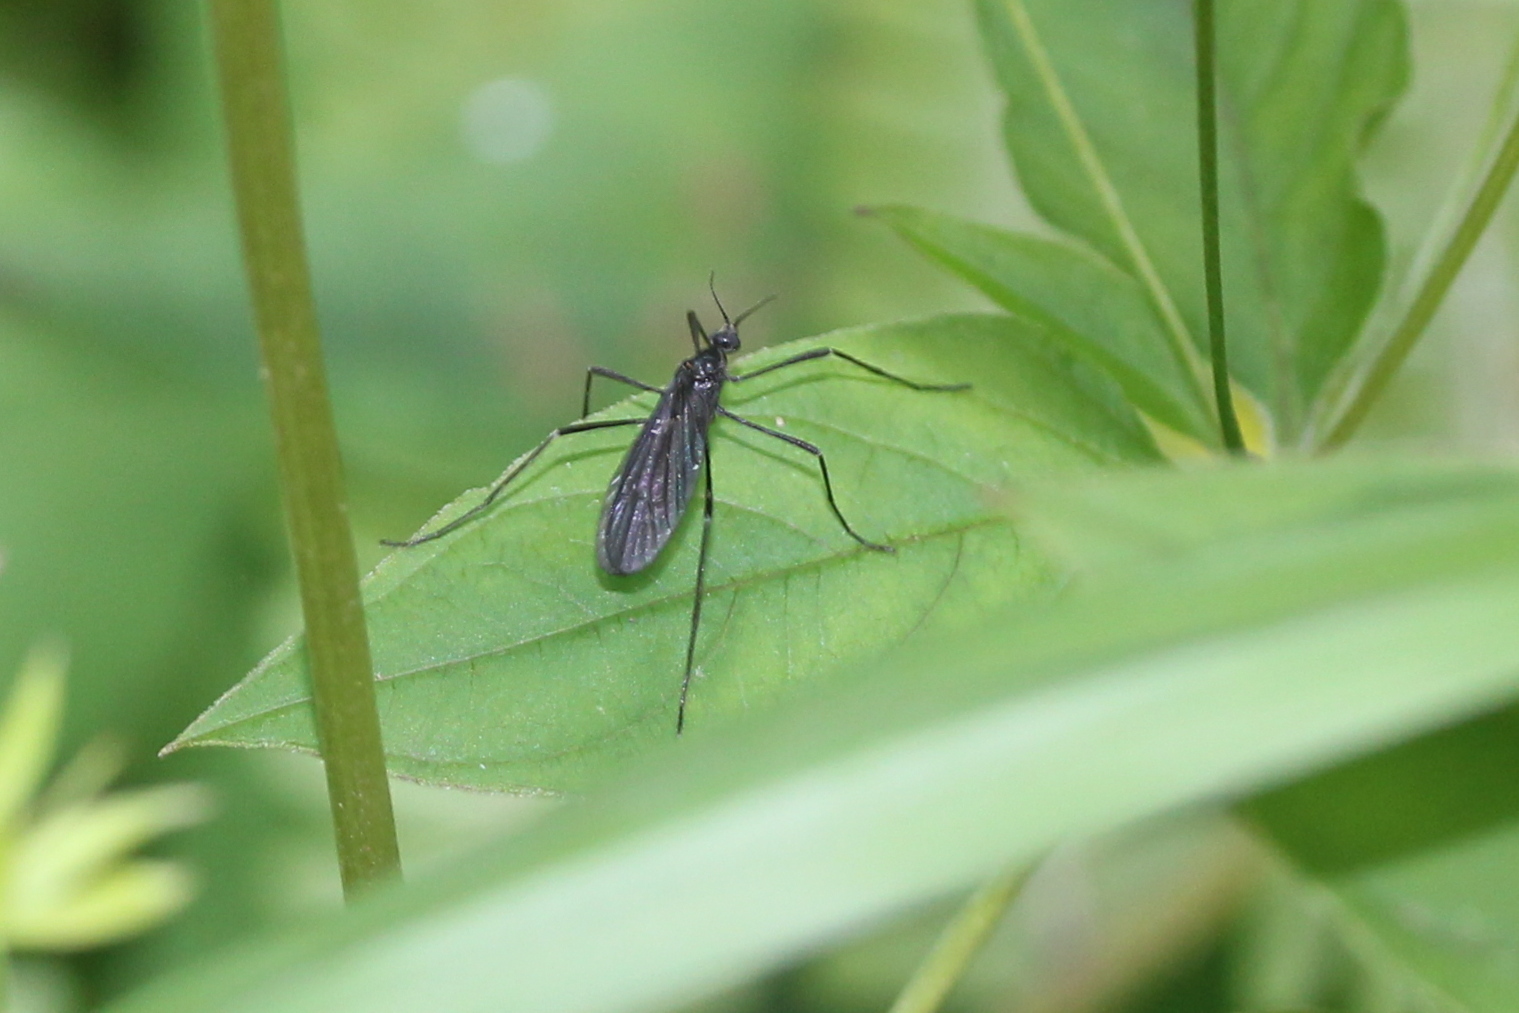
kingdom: Animalia
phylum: Arthropoda
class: Insecta
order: Diptera
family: Limoniidae
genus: Eugnophomyia
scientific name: Eugnophomyia luctuosa
